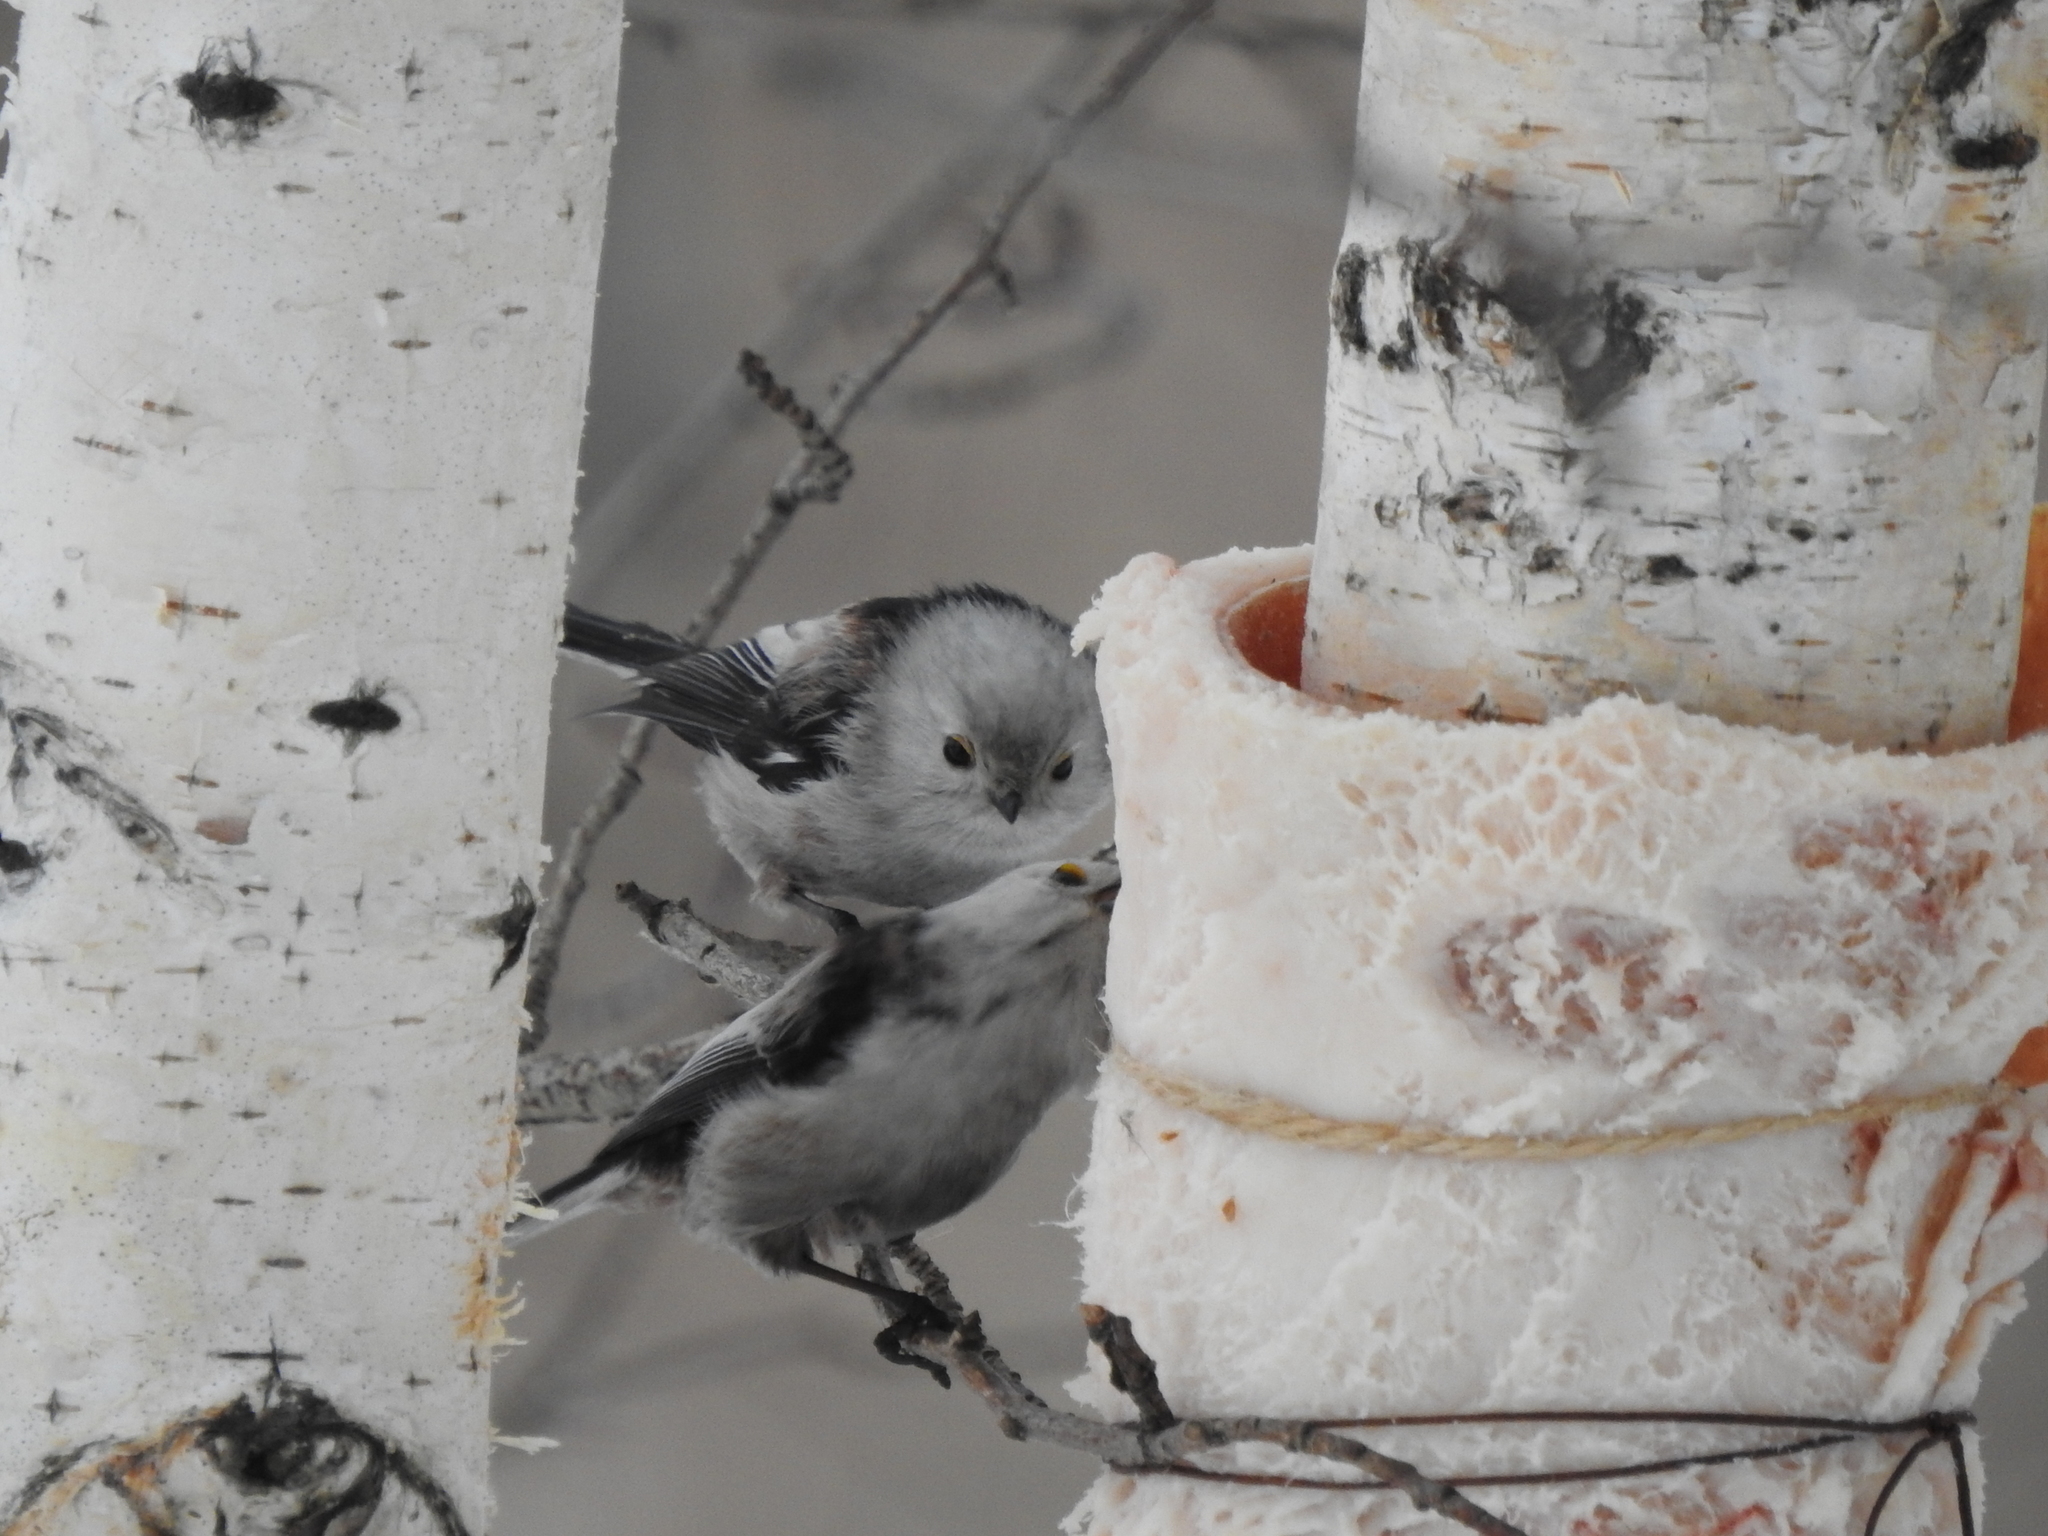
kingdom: Animalia
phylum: Chordata
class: Aves
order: Passeriformes
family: Aegithalidae
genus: Aegithalos
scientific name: Aegithalos caudatus
